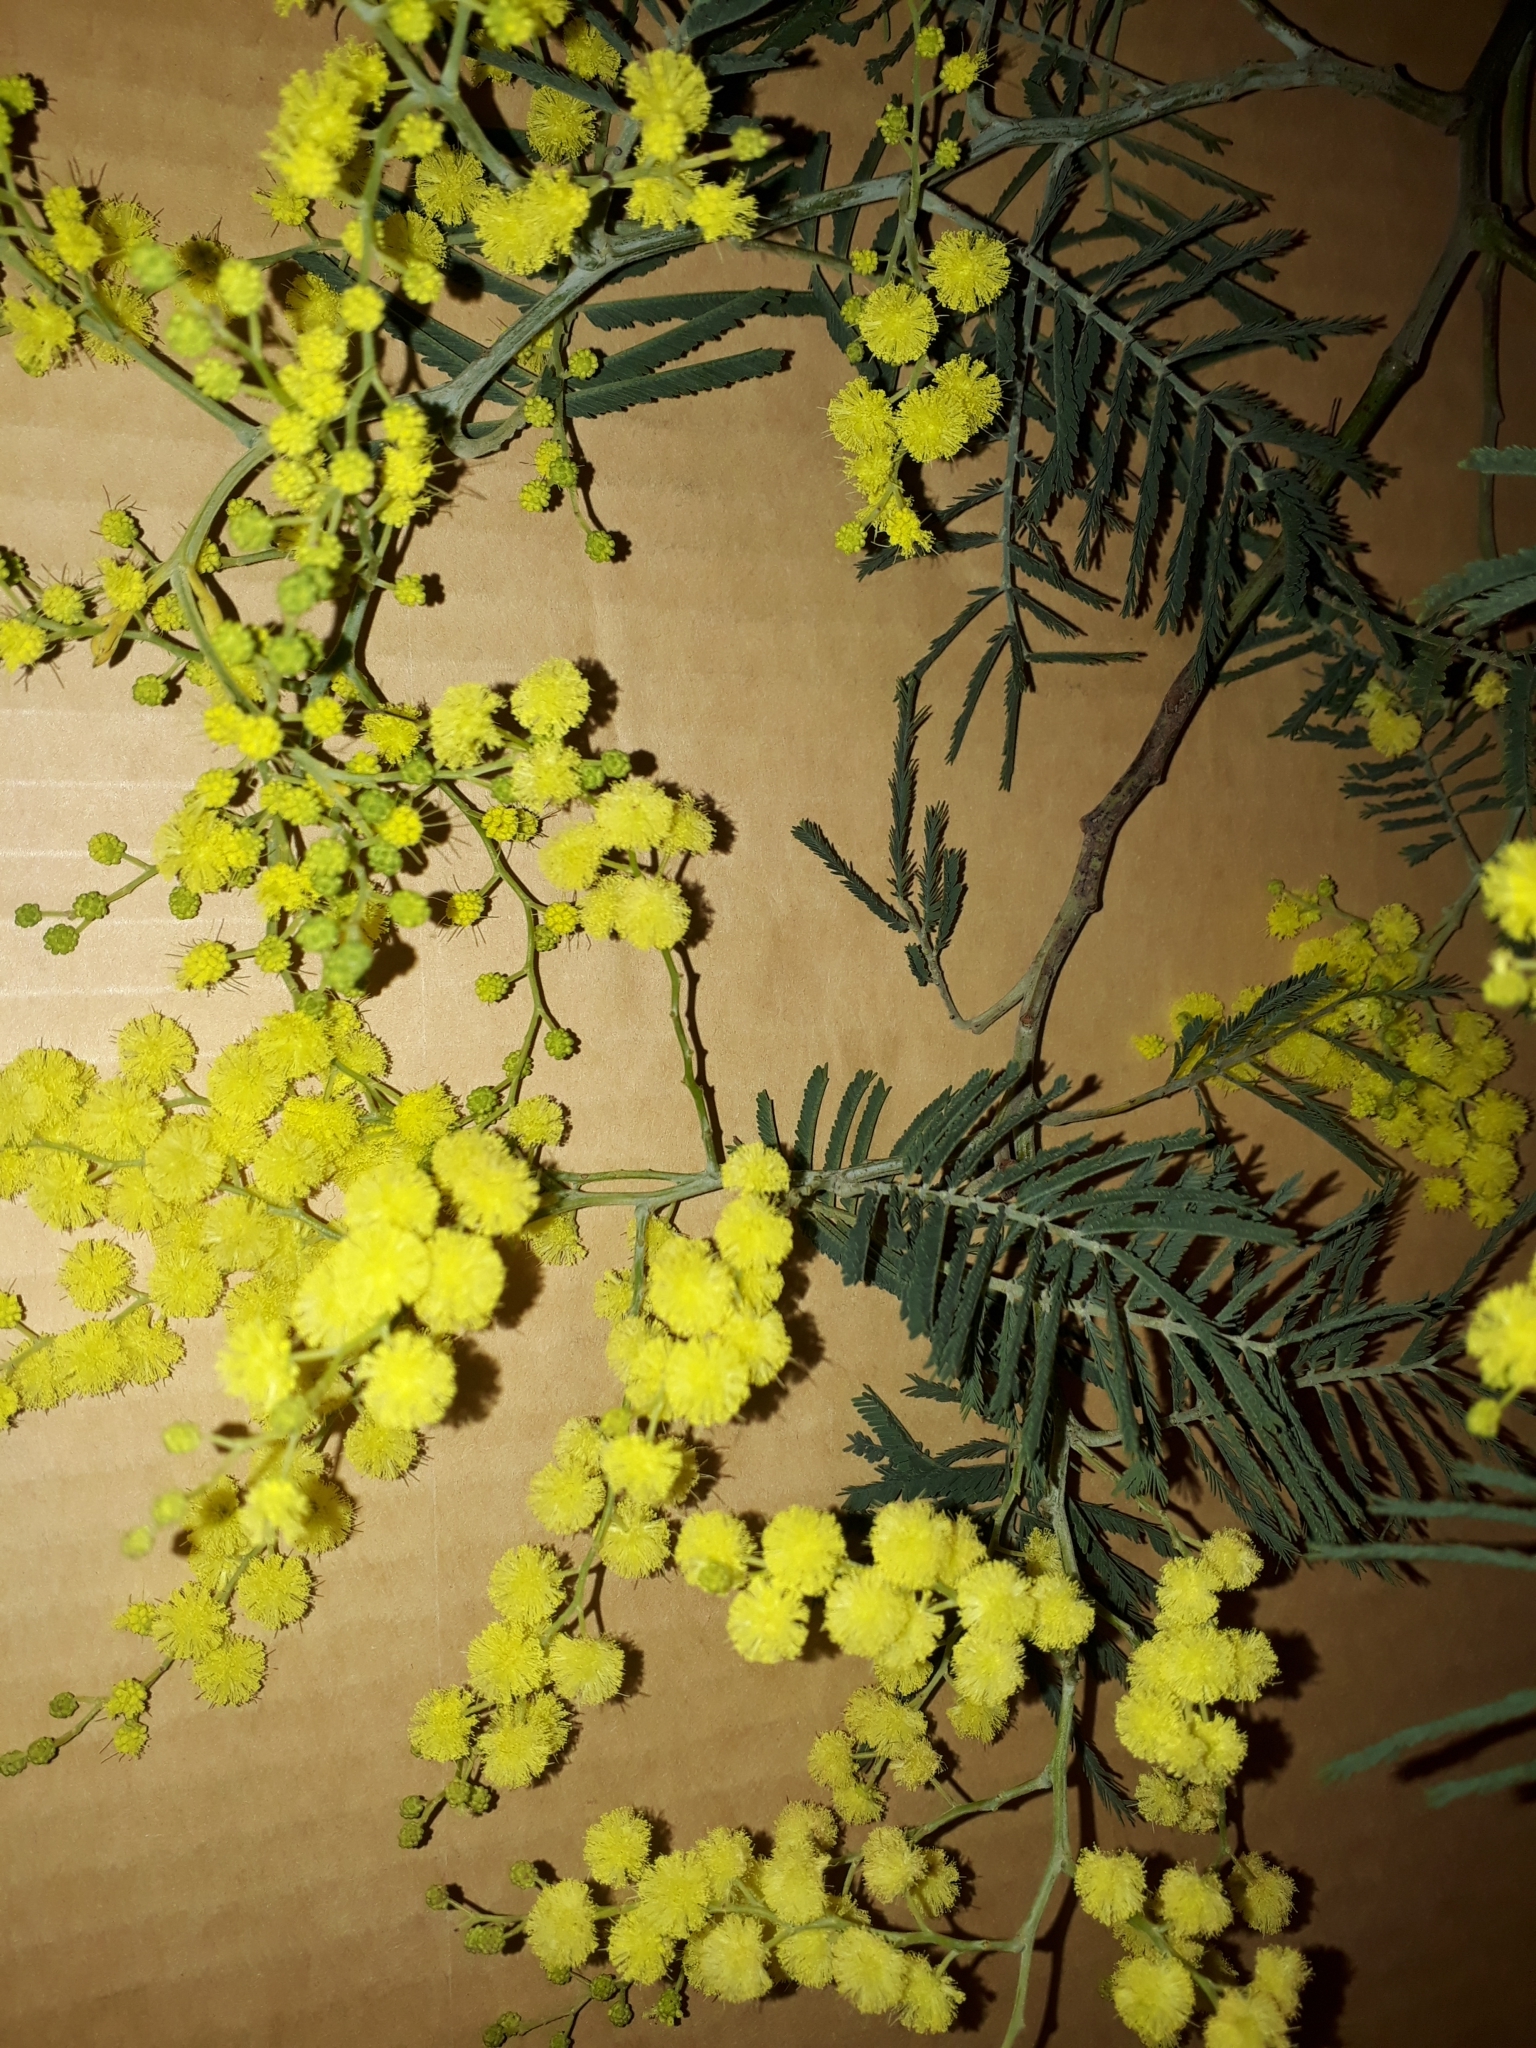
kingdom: Plantae
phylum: Tracheophyta
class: Magnoliopsida
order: Fabales
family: Fabaceae
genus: Acacia
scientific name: Acacia mearnsii
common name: Black wattle
